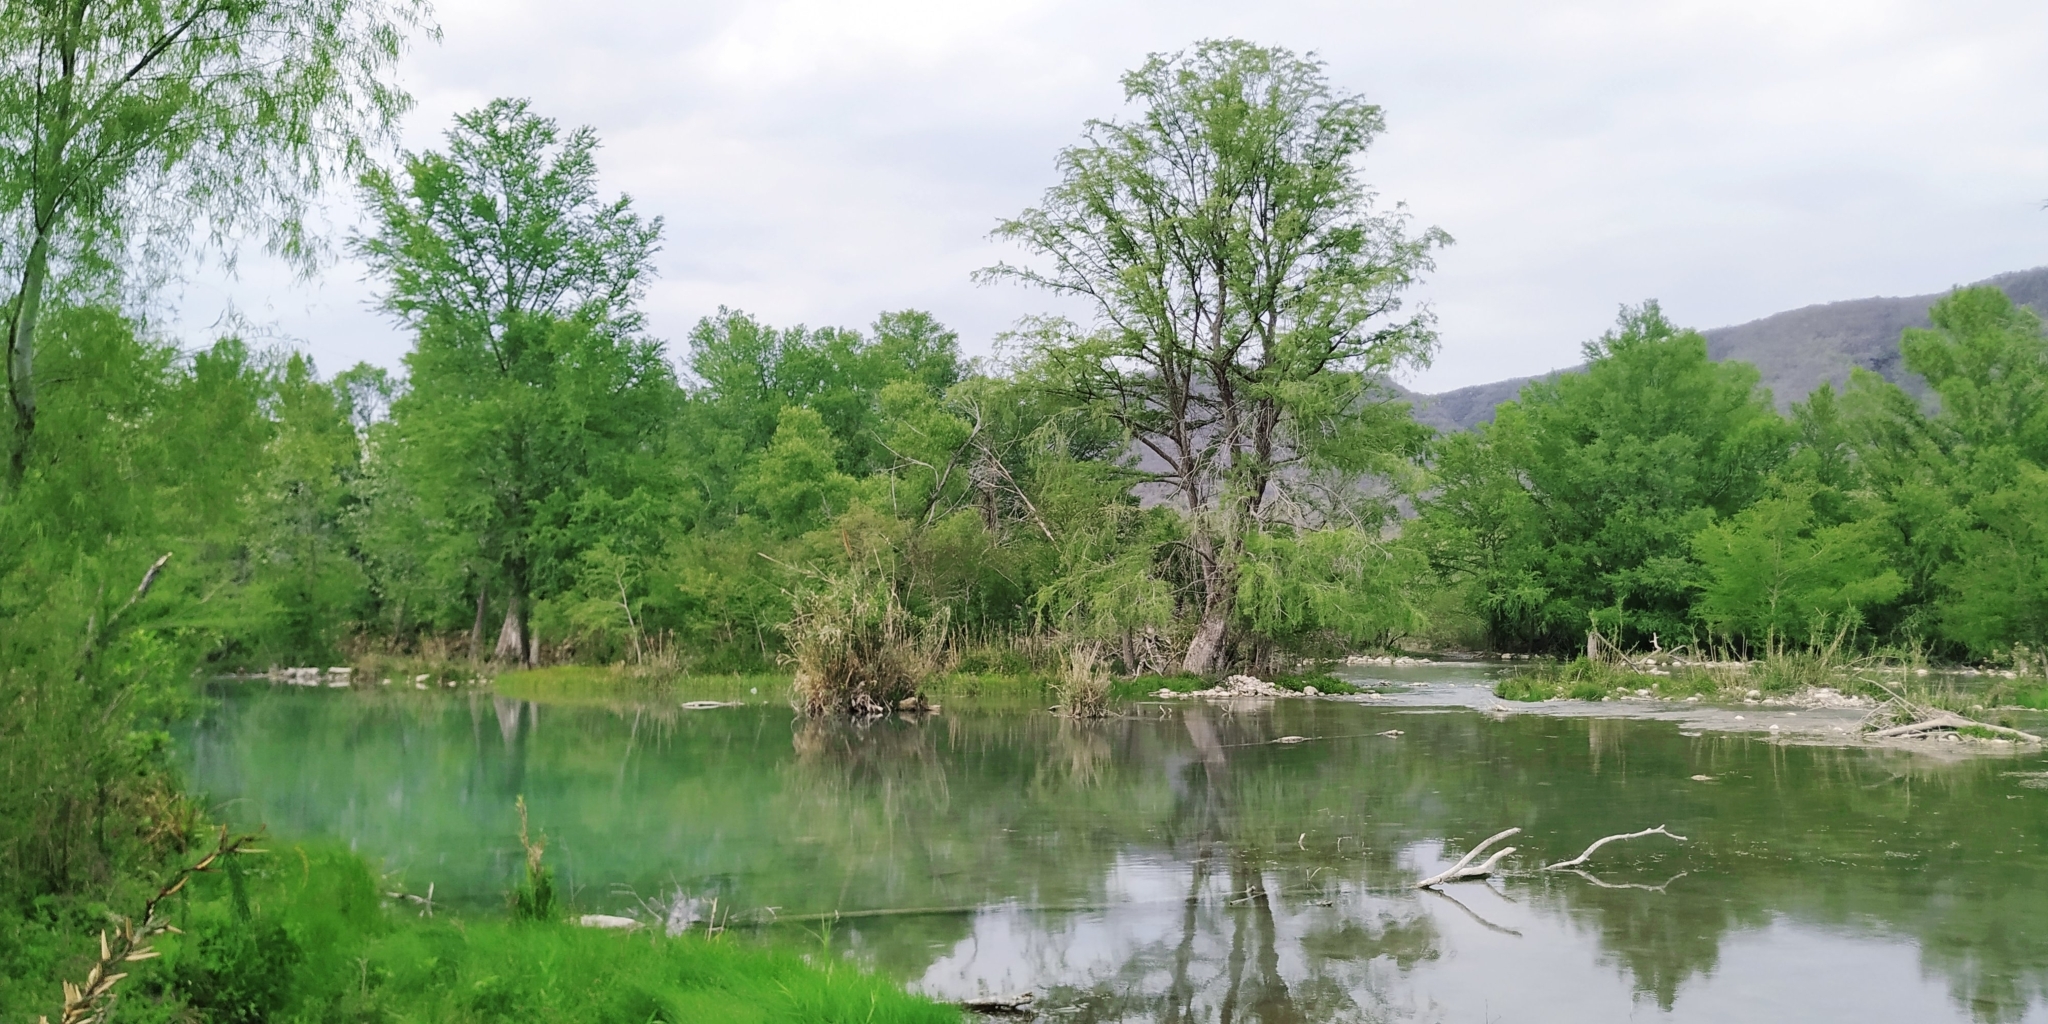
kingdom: Plantae
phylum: Tracheophyta
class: Pinopsida
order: Pinales
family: Cupressaceae
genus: Taxodium
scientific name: Taxodium mucronatum
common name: Montezume bald cypress
